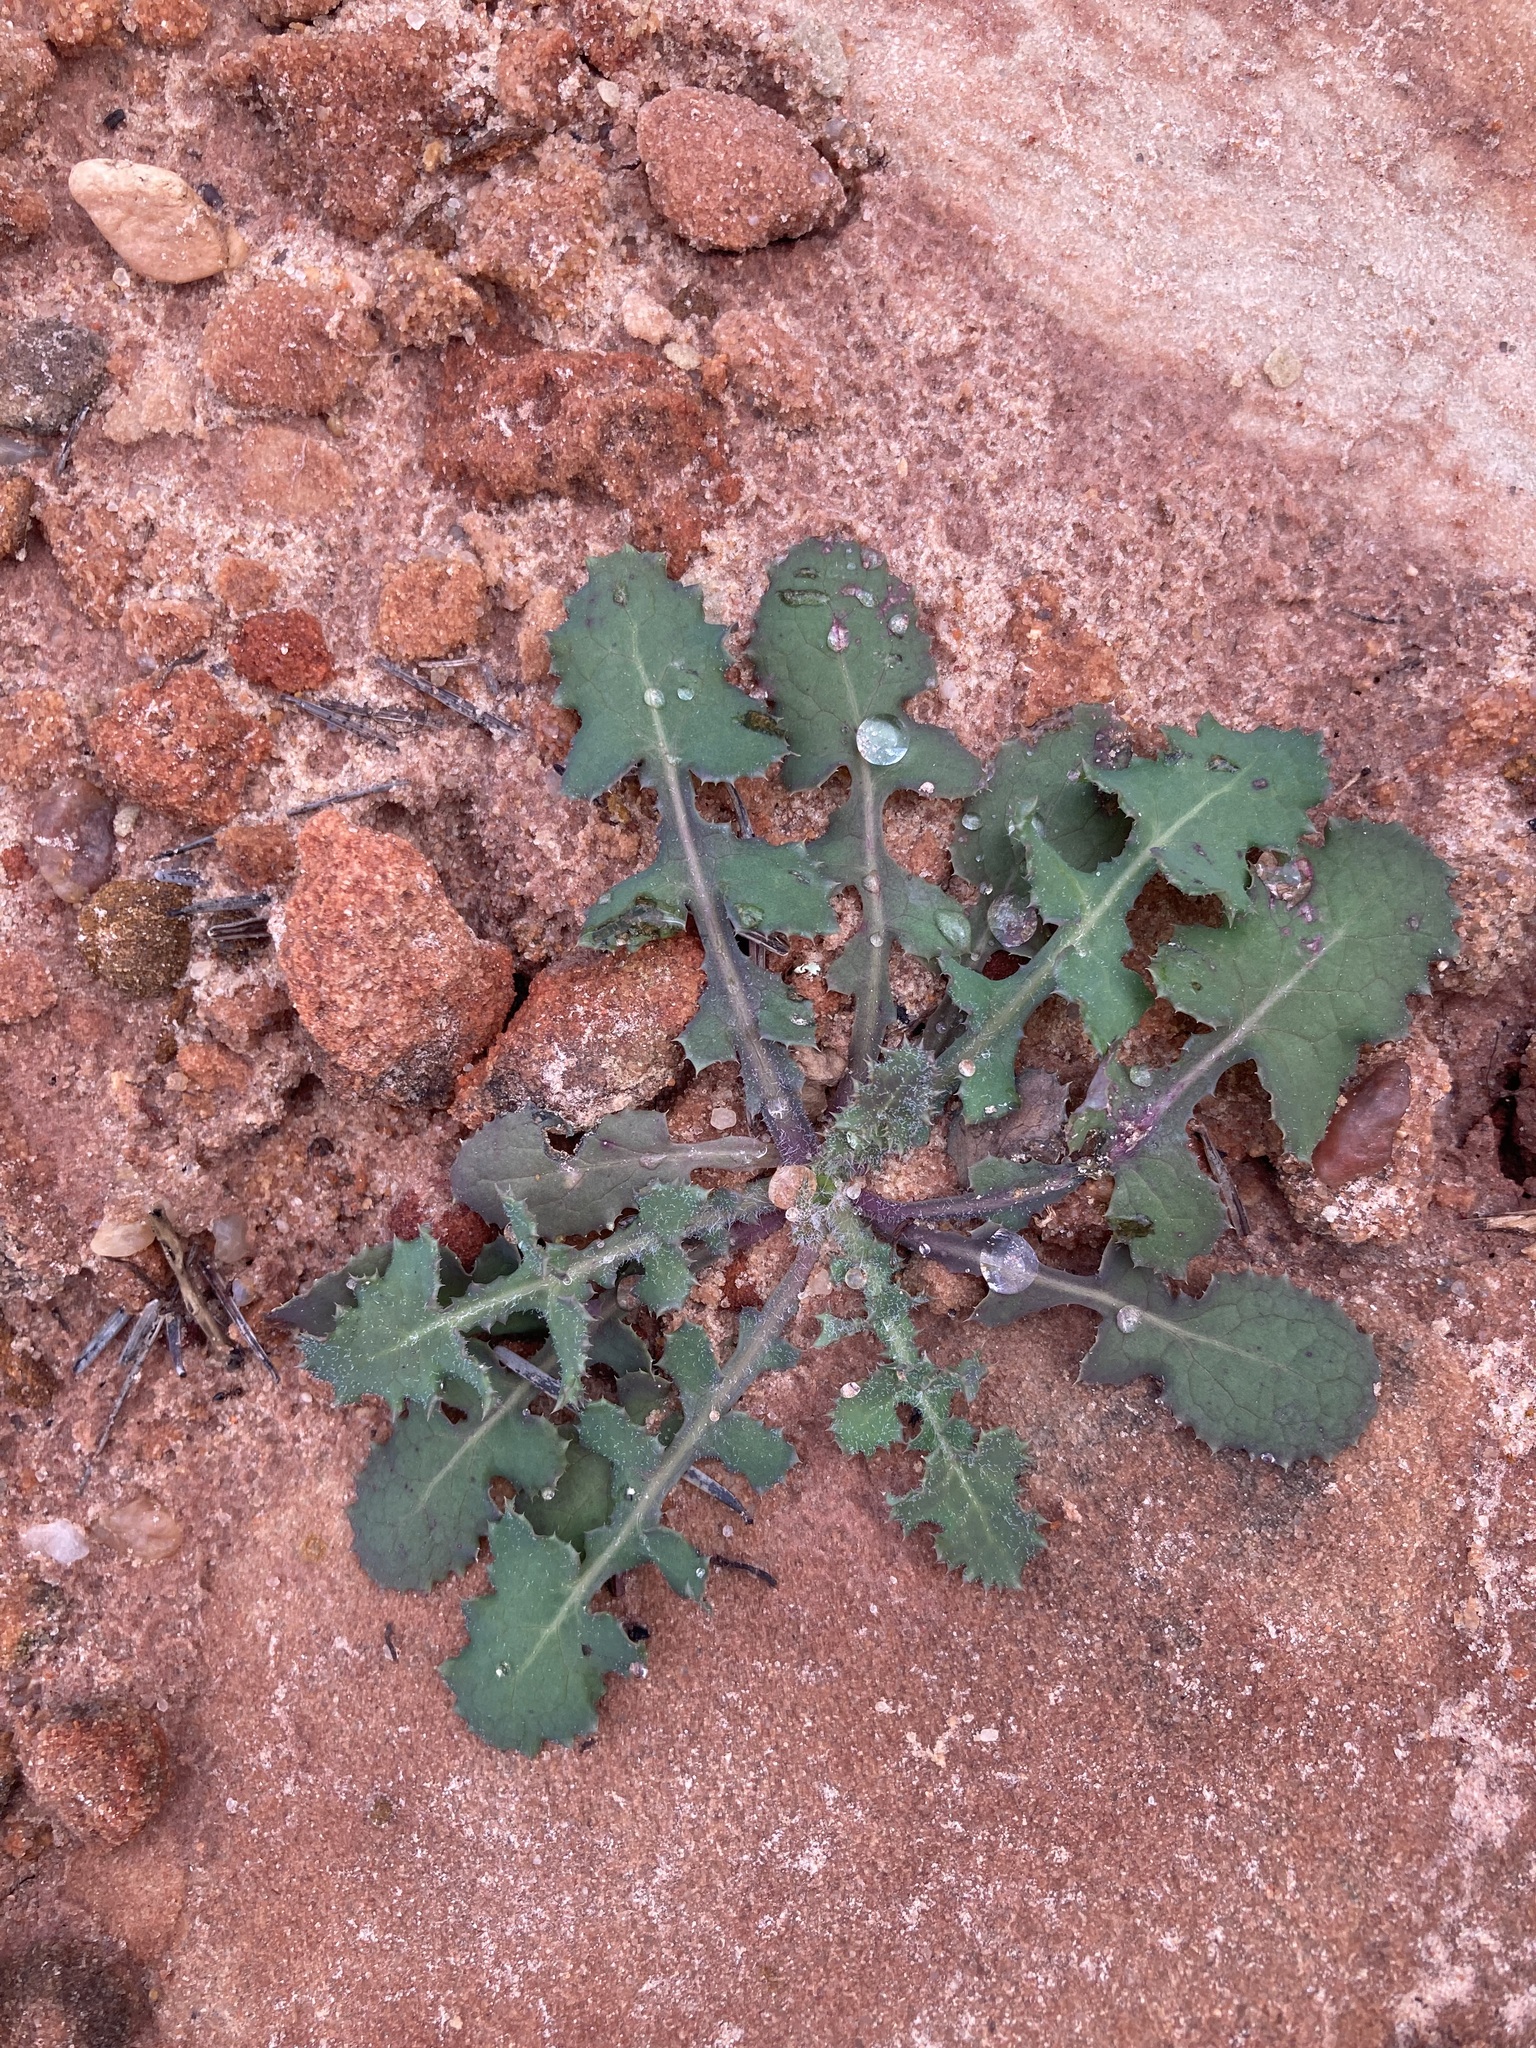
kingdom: Plantae
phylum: Tracheophyta
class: Magnoliopsida
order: Asterales
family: Asteraceae
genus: Sonchus
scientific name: Sonchus oleraceus
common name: Common sowthistle
